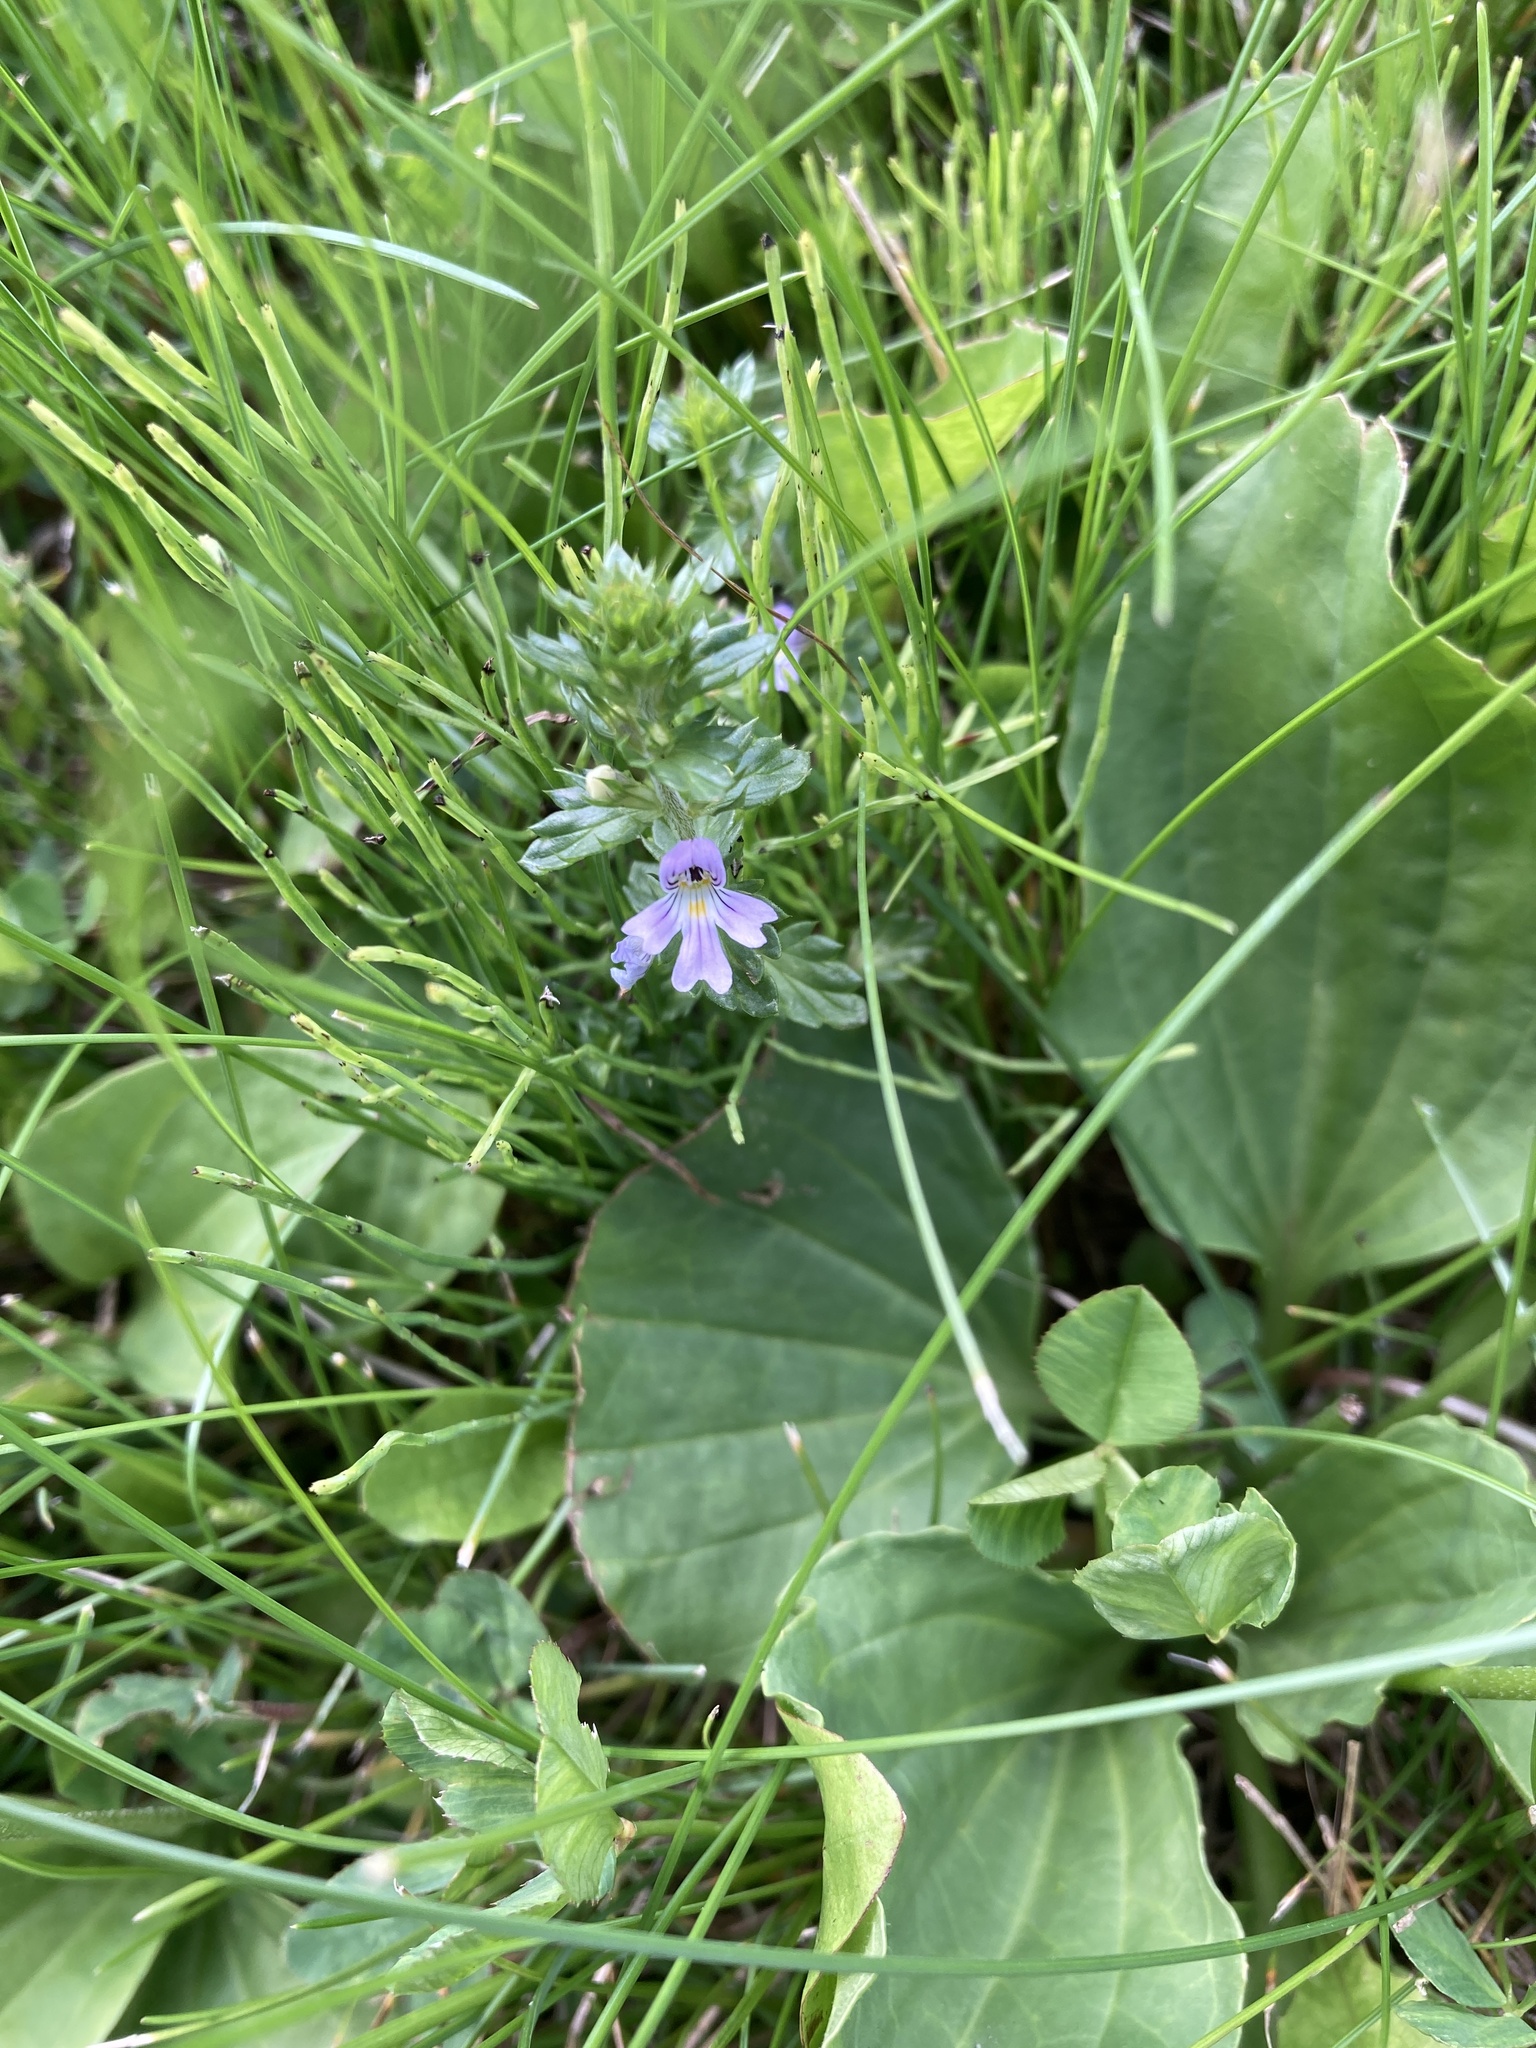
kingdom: Plantae
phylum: Tracheophyta
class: Magnoliopsida
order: Lamiales
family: Orobanchaceae
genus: Euphrasia
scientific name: Euphrasia nemorosa
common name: Common eyebright
